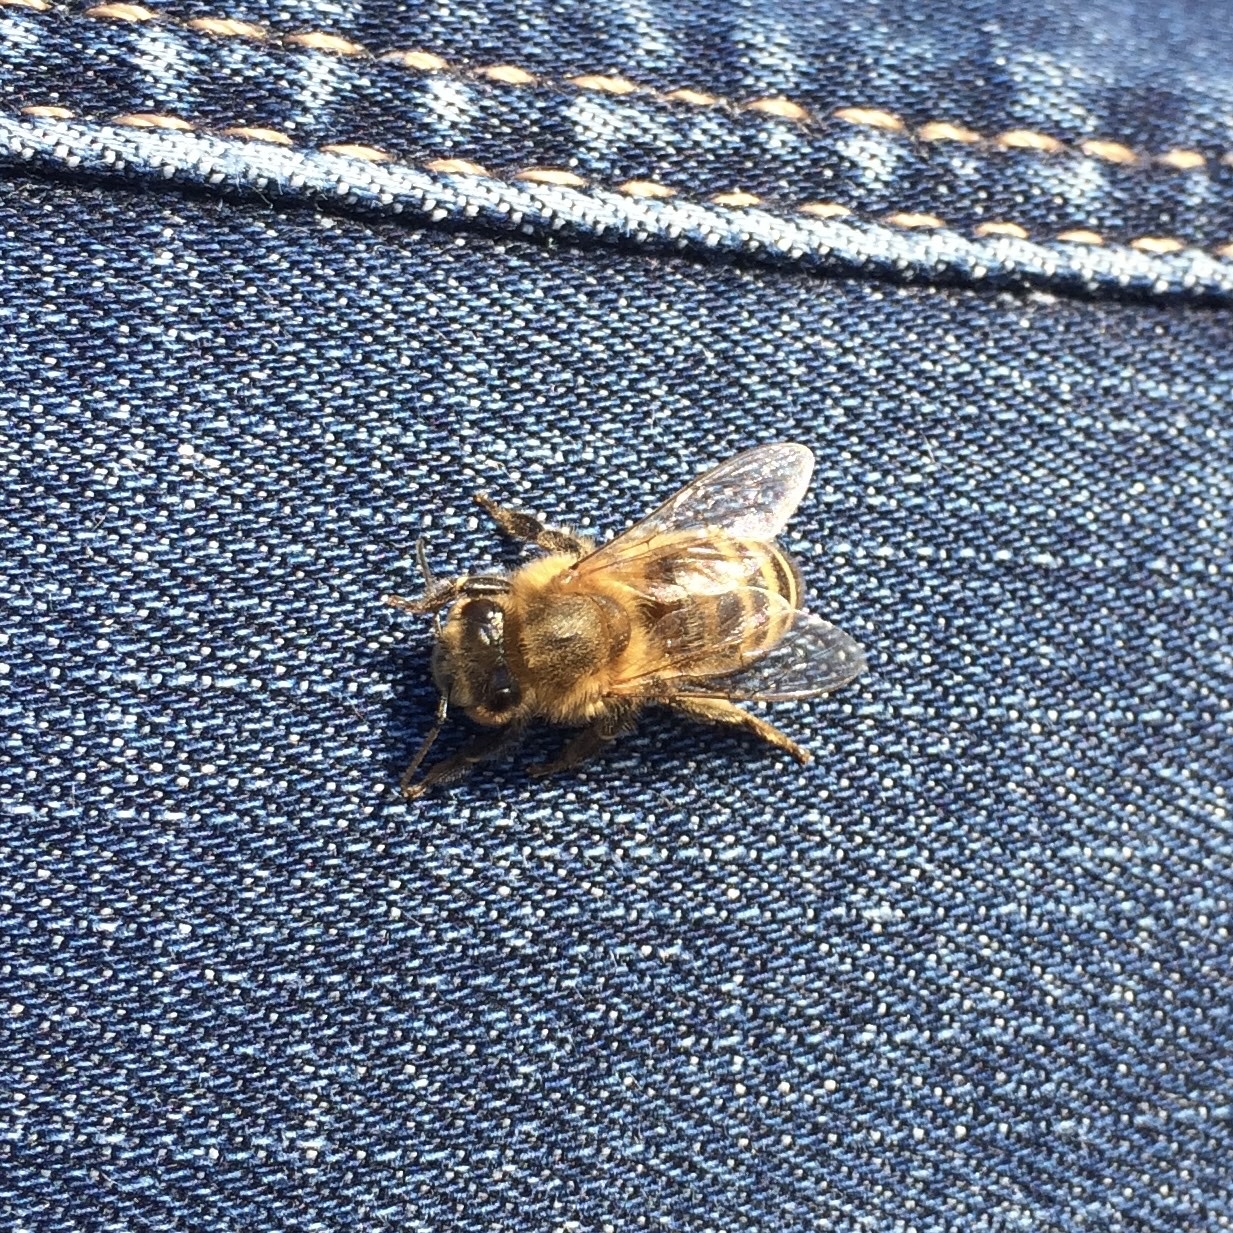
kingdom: Animalia
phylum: Arthropoda
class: Insecta
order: Hymenoptera
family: Apidae
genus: Apis
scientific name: Apis mellifera
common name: Honey bee
